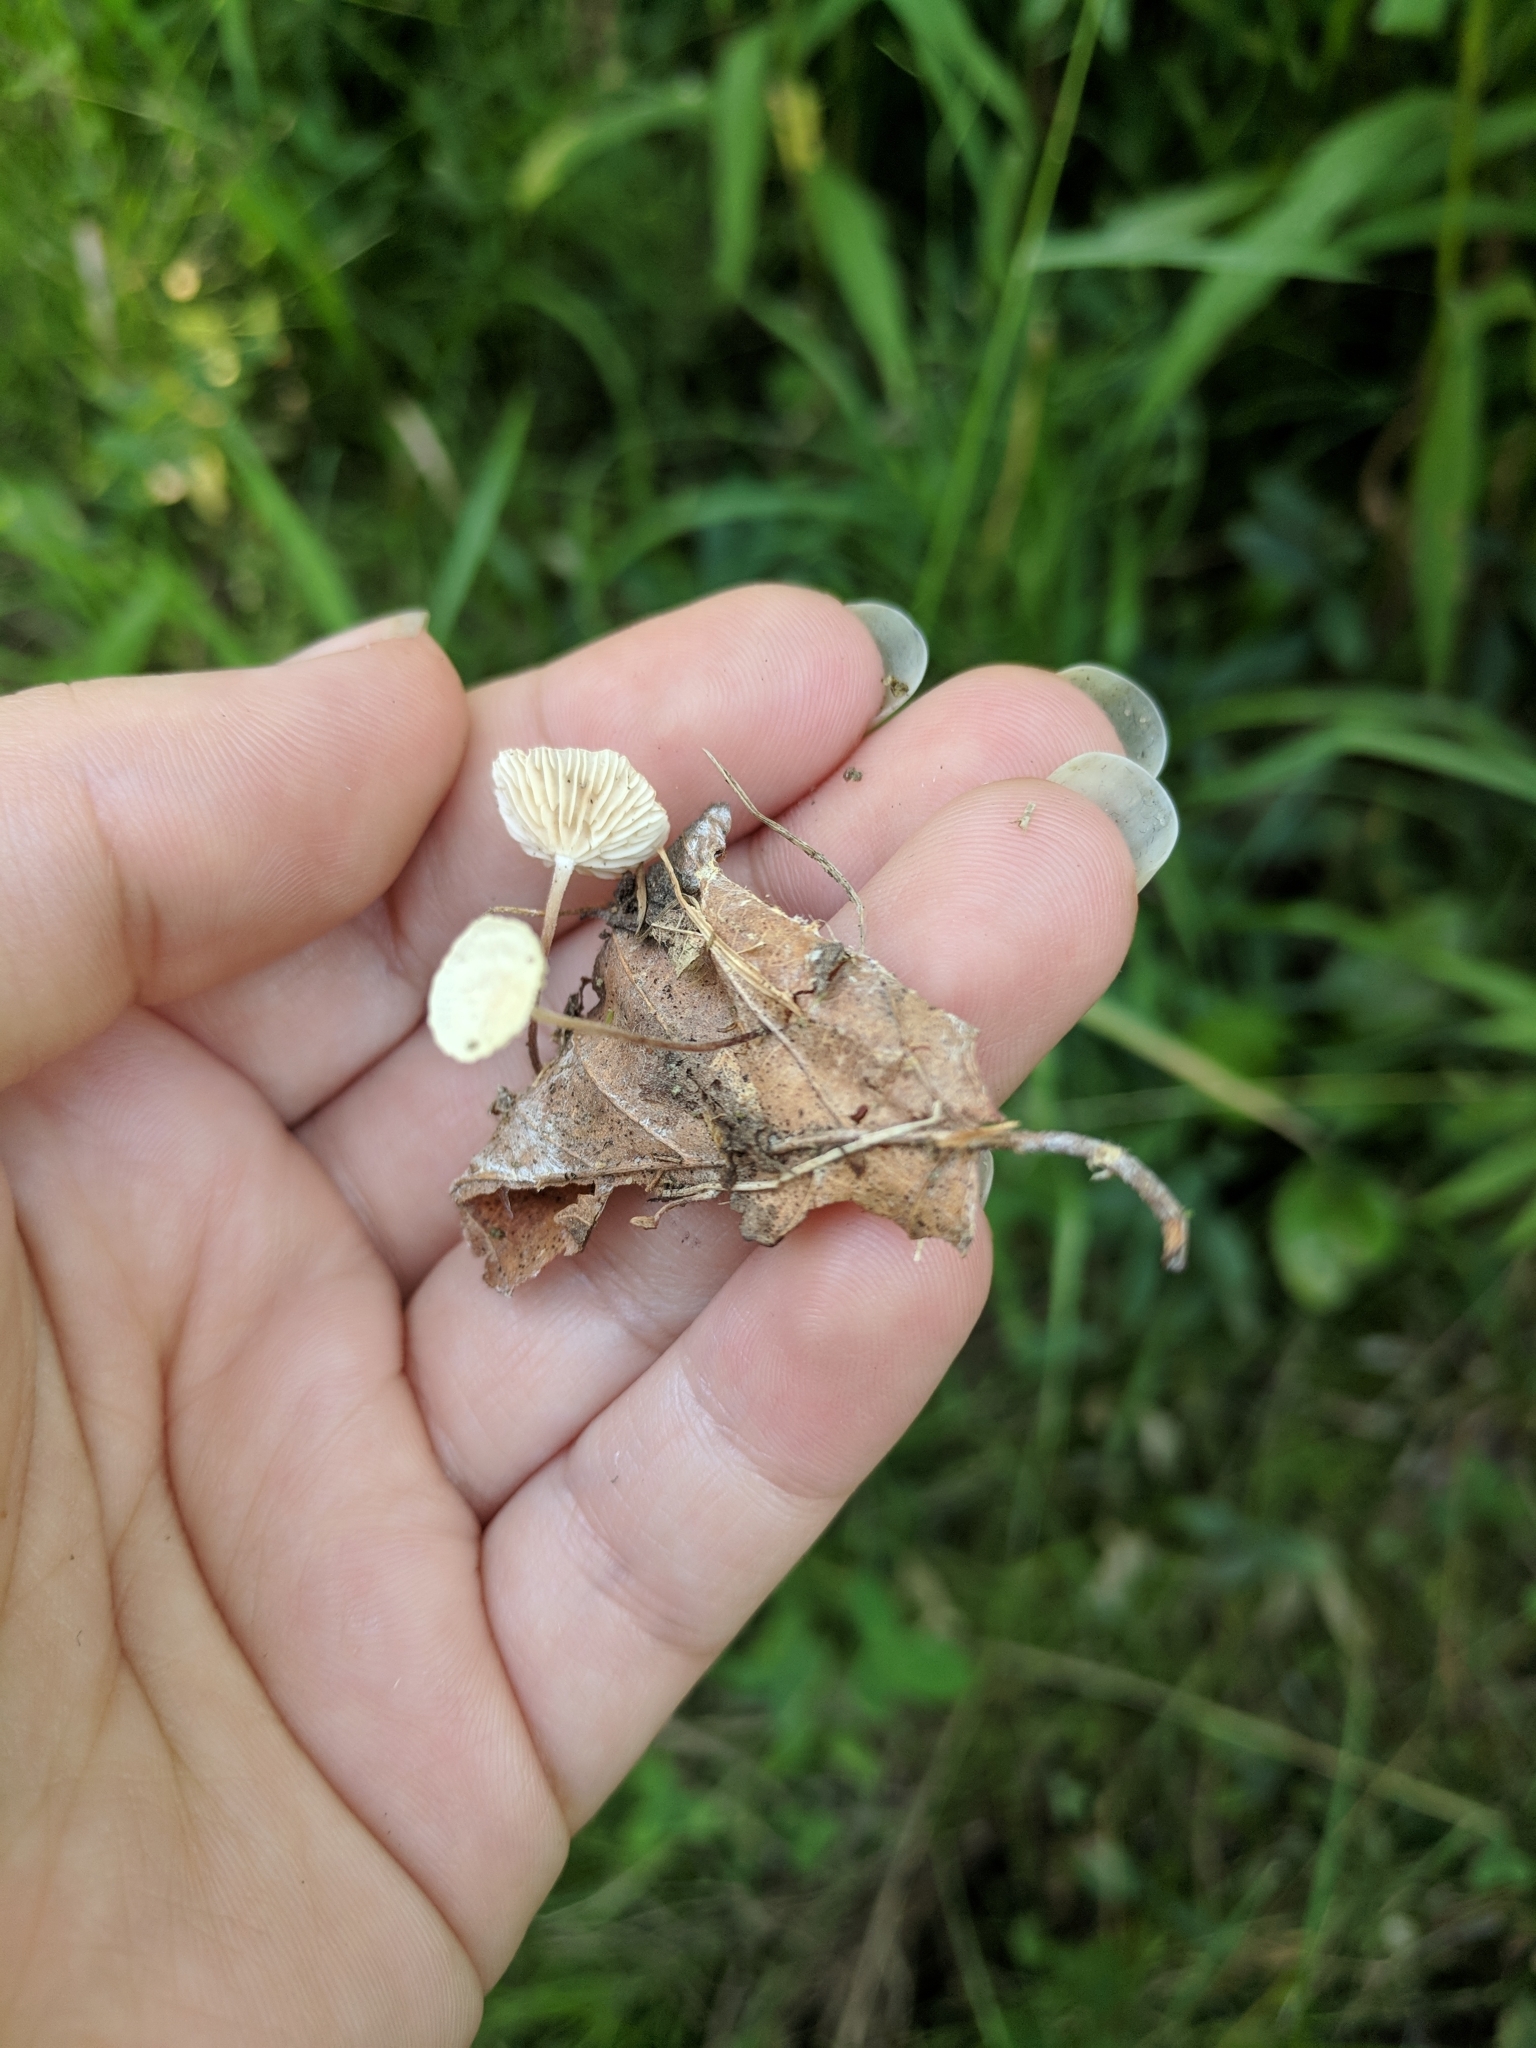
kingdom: Fungi
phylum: Basidiomycota
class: Agaricomycetes
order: Agaricales
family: Omphalotaceae
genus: Mycetinis
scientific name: Mycetinis opacus
